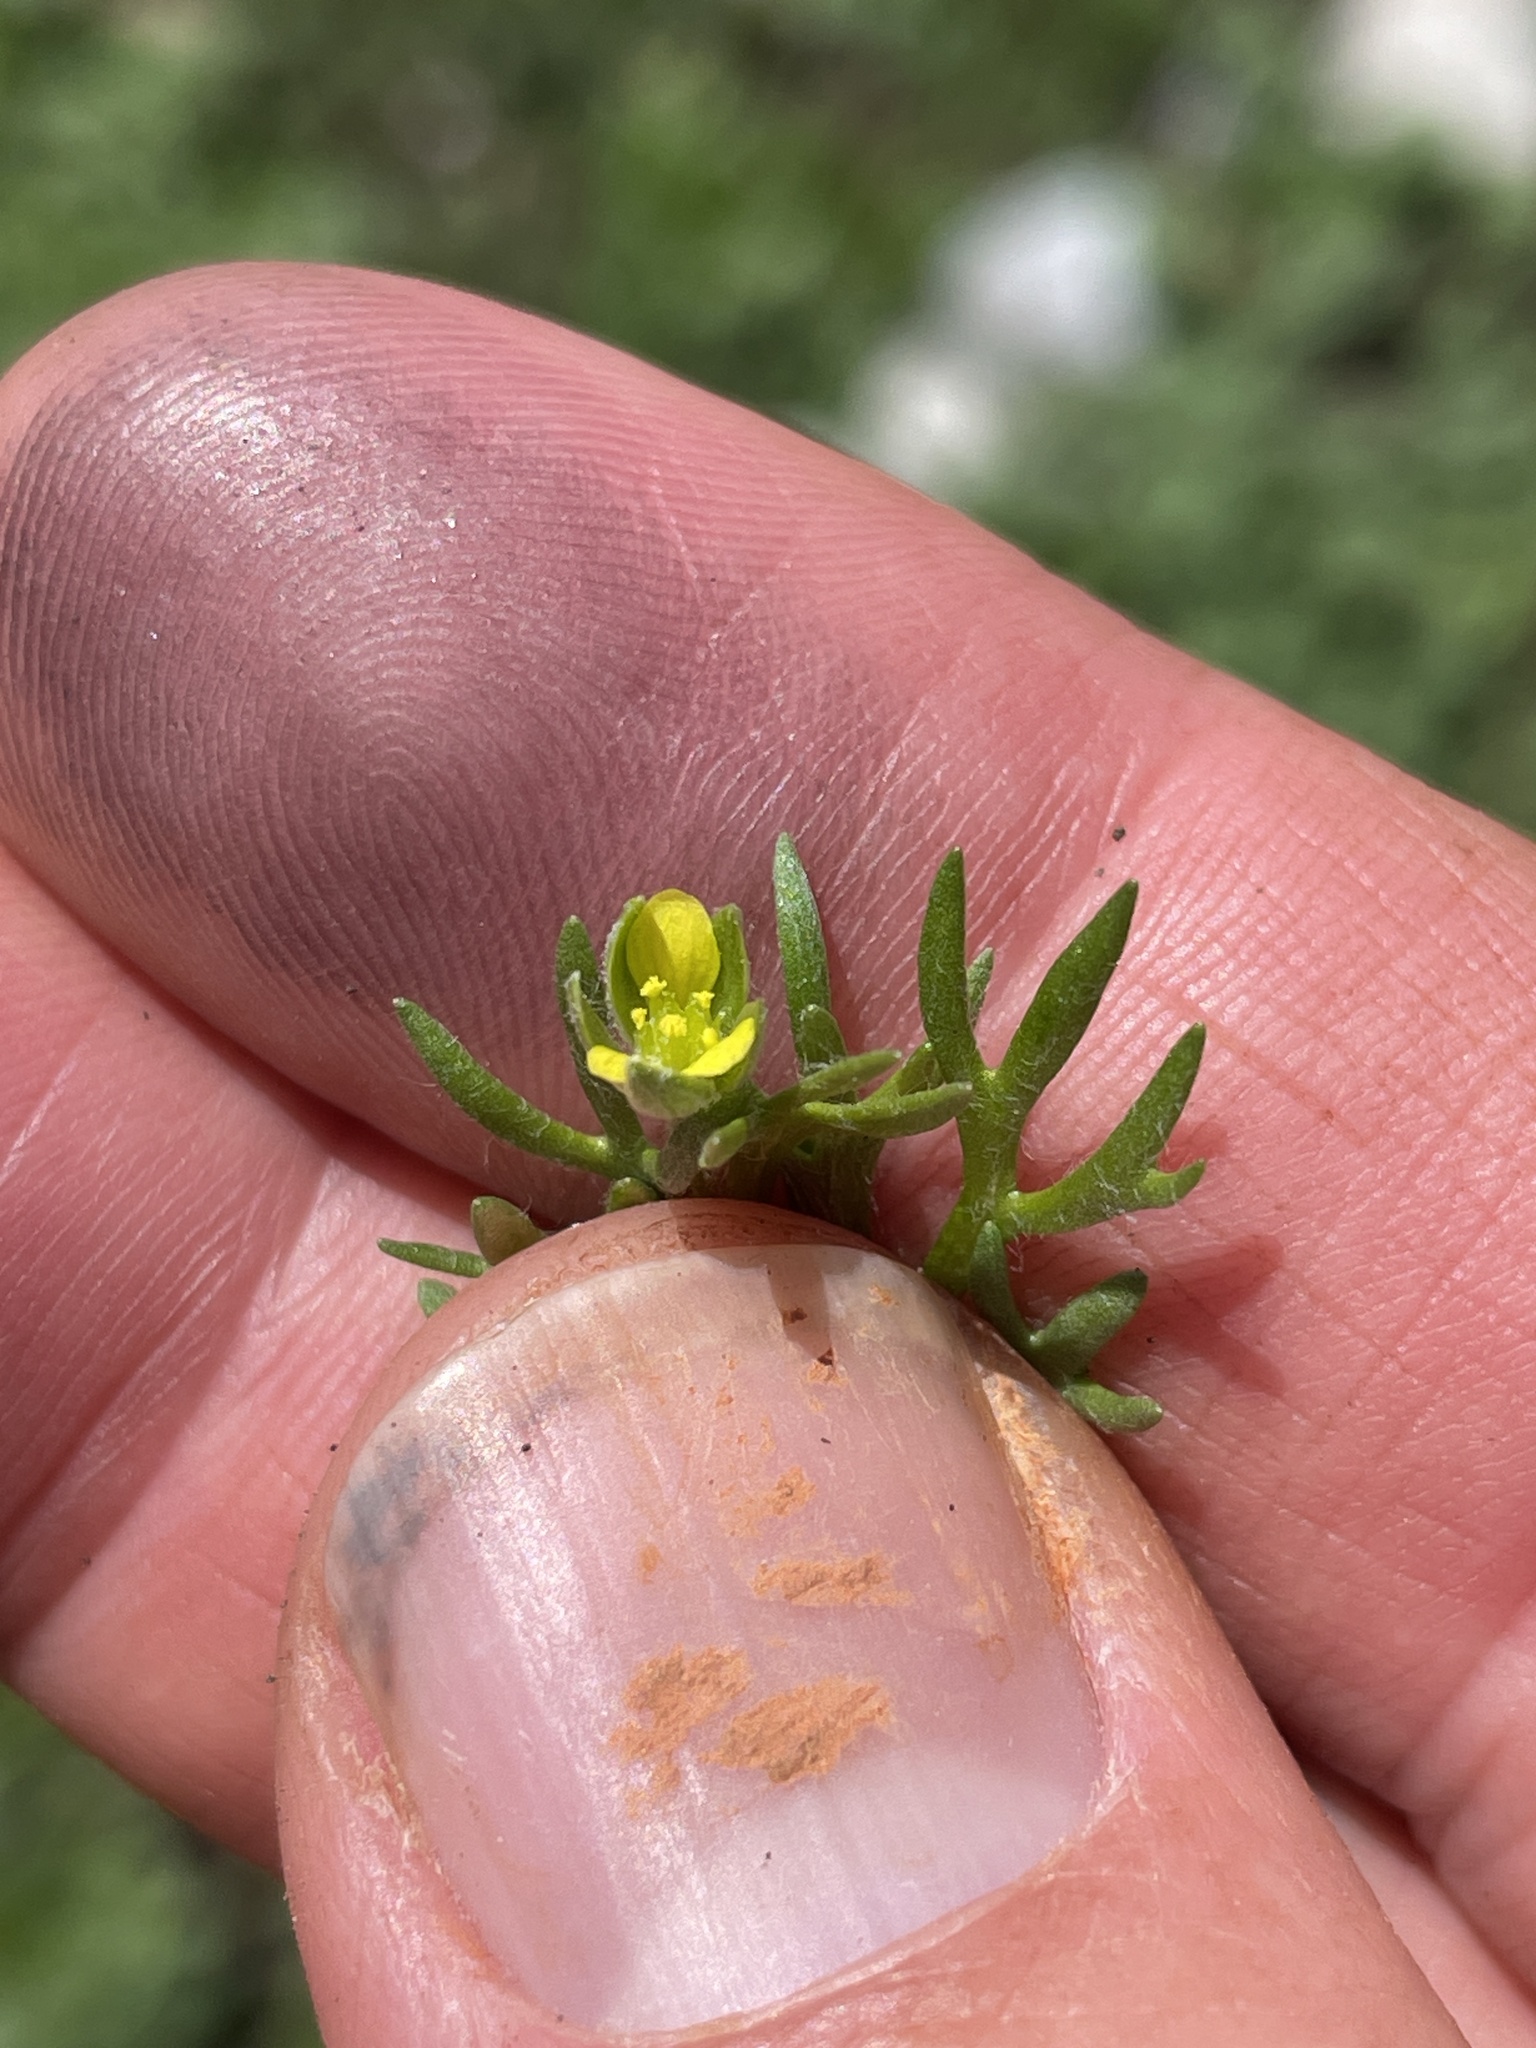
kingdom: Plantae
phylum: Tracheophyta
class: Magnoliopsida
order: Ranunculales
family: Ranunculaceae
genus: Ceratocephala
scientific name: Ceratocephala orthoceras
